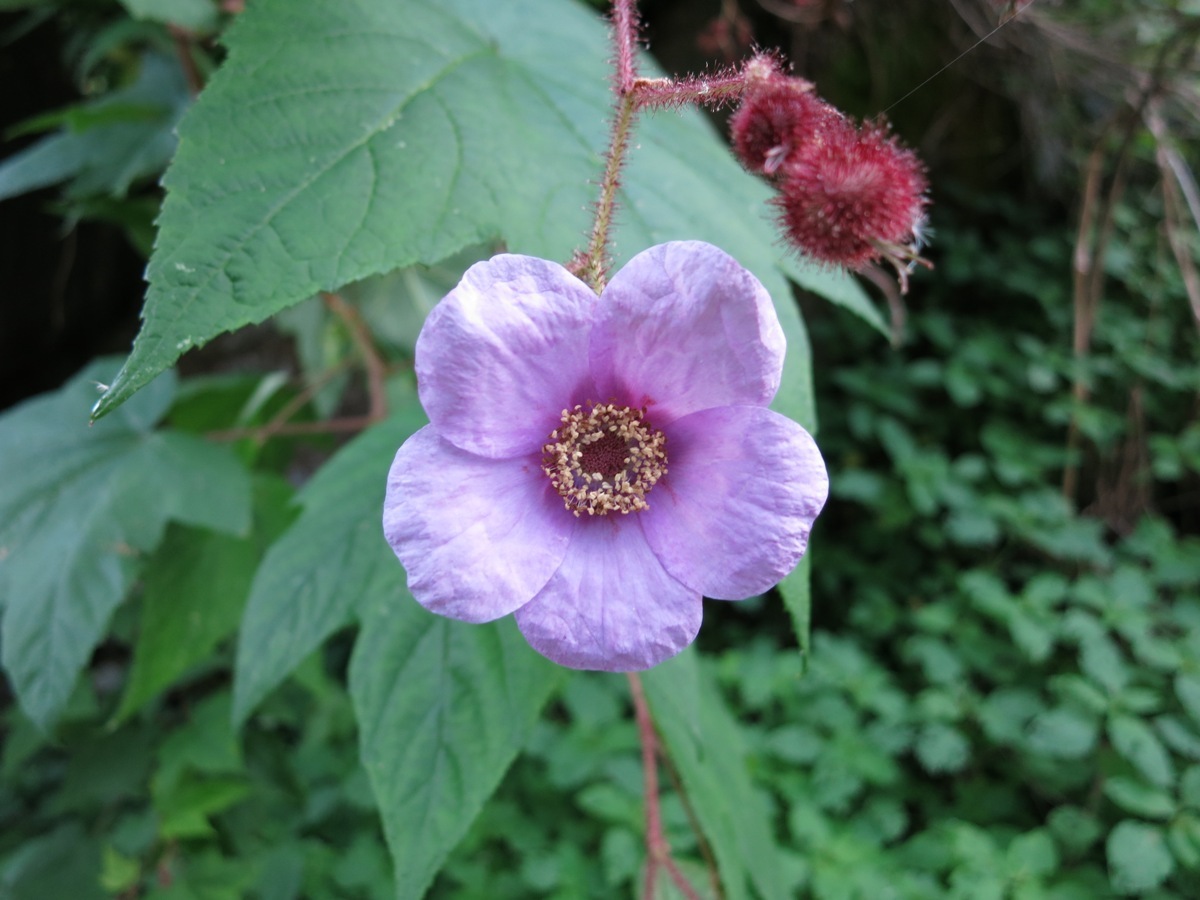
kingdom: Plantae
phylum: Tracheophyta
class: Magnoliopsida
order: Rosales
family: Rosaceae
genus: Rubus
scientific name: Rubus odoratus
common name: Purple-flowered raspberry
